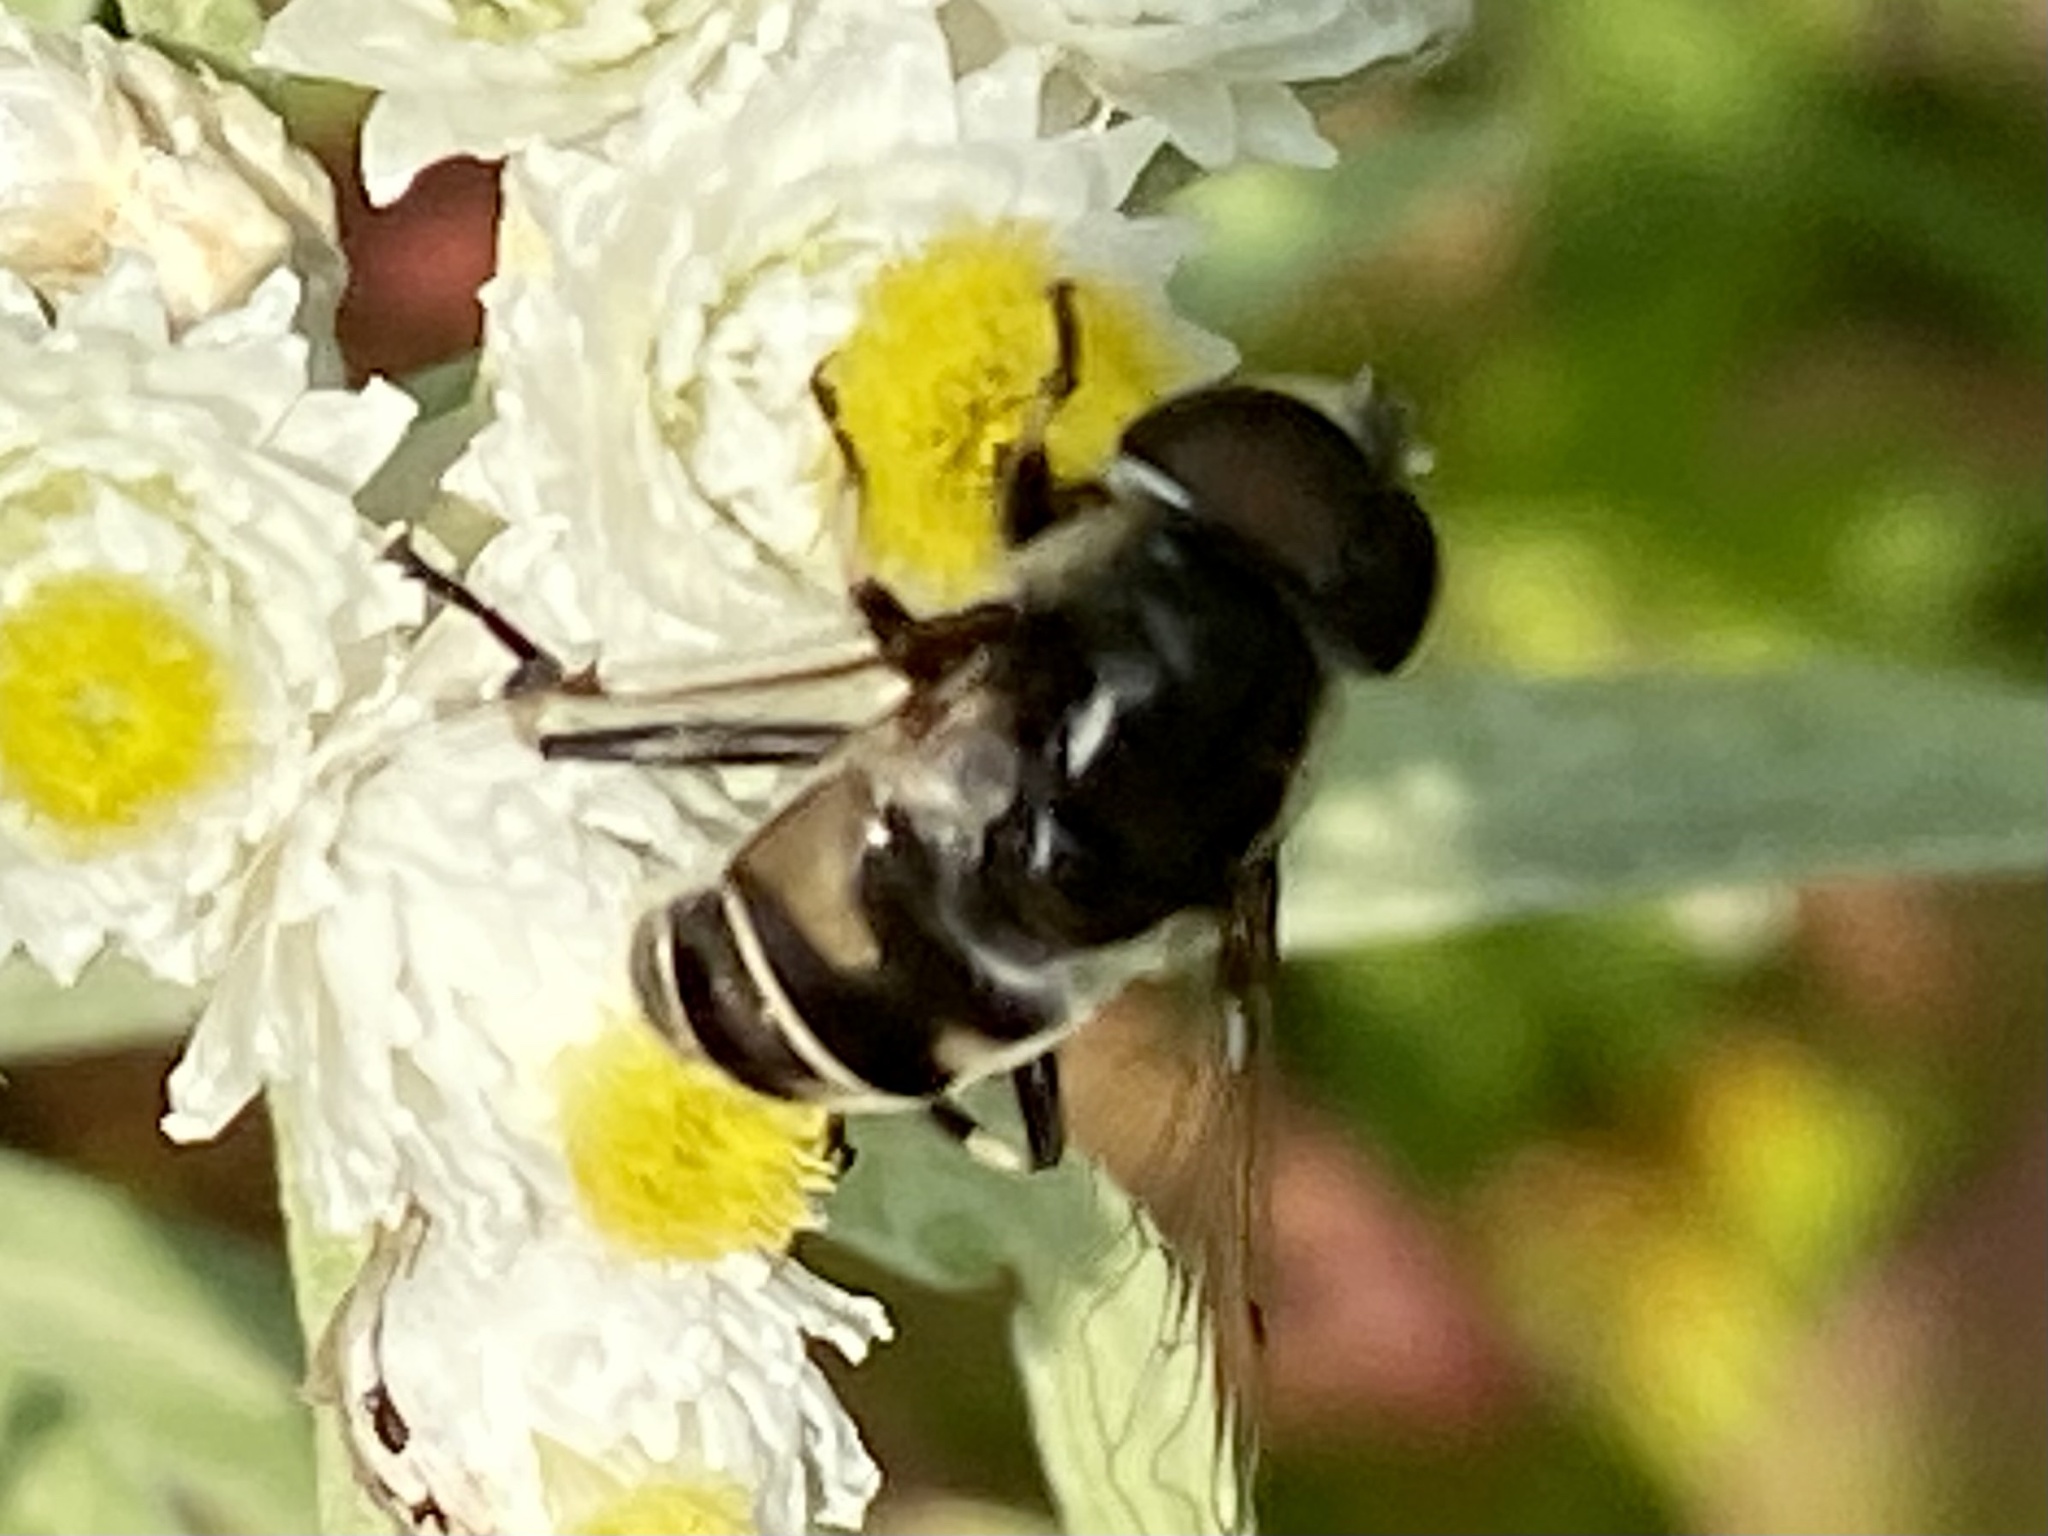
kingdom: Animalia
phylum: Arthropoda
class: Insecta
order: Diptera
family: Syrphidae
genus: Eristalis
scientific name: Eristalis dimidiata
